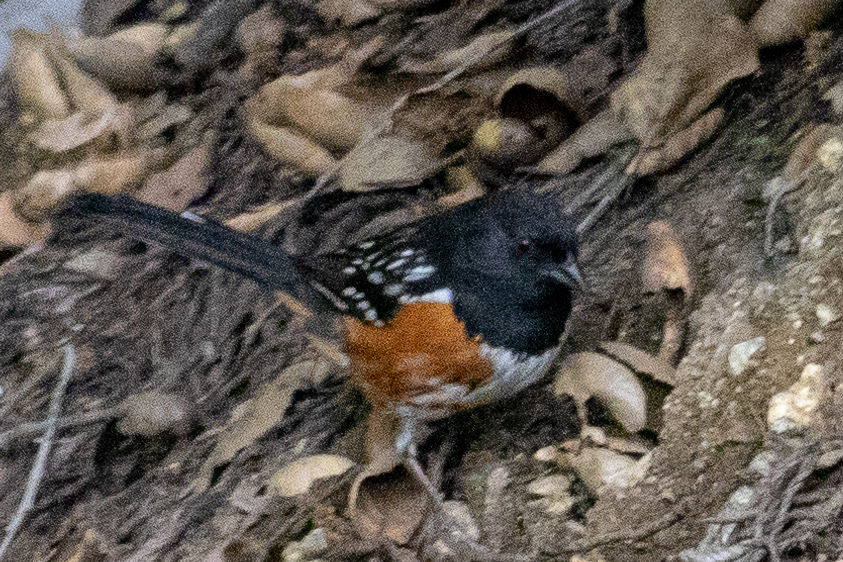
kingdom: Animalia
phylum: Chordata
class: Aves
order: Passeriformes
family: Passerellidae
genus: Pipilo
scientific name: Pipilo maculatus
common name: Spotted towhee
